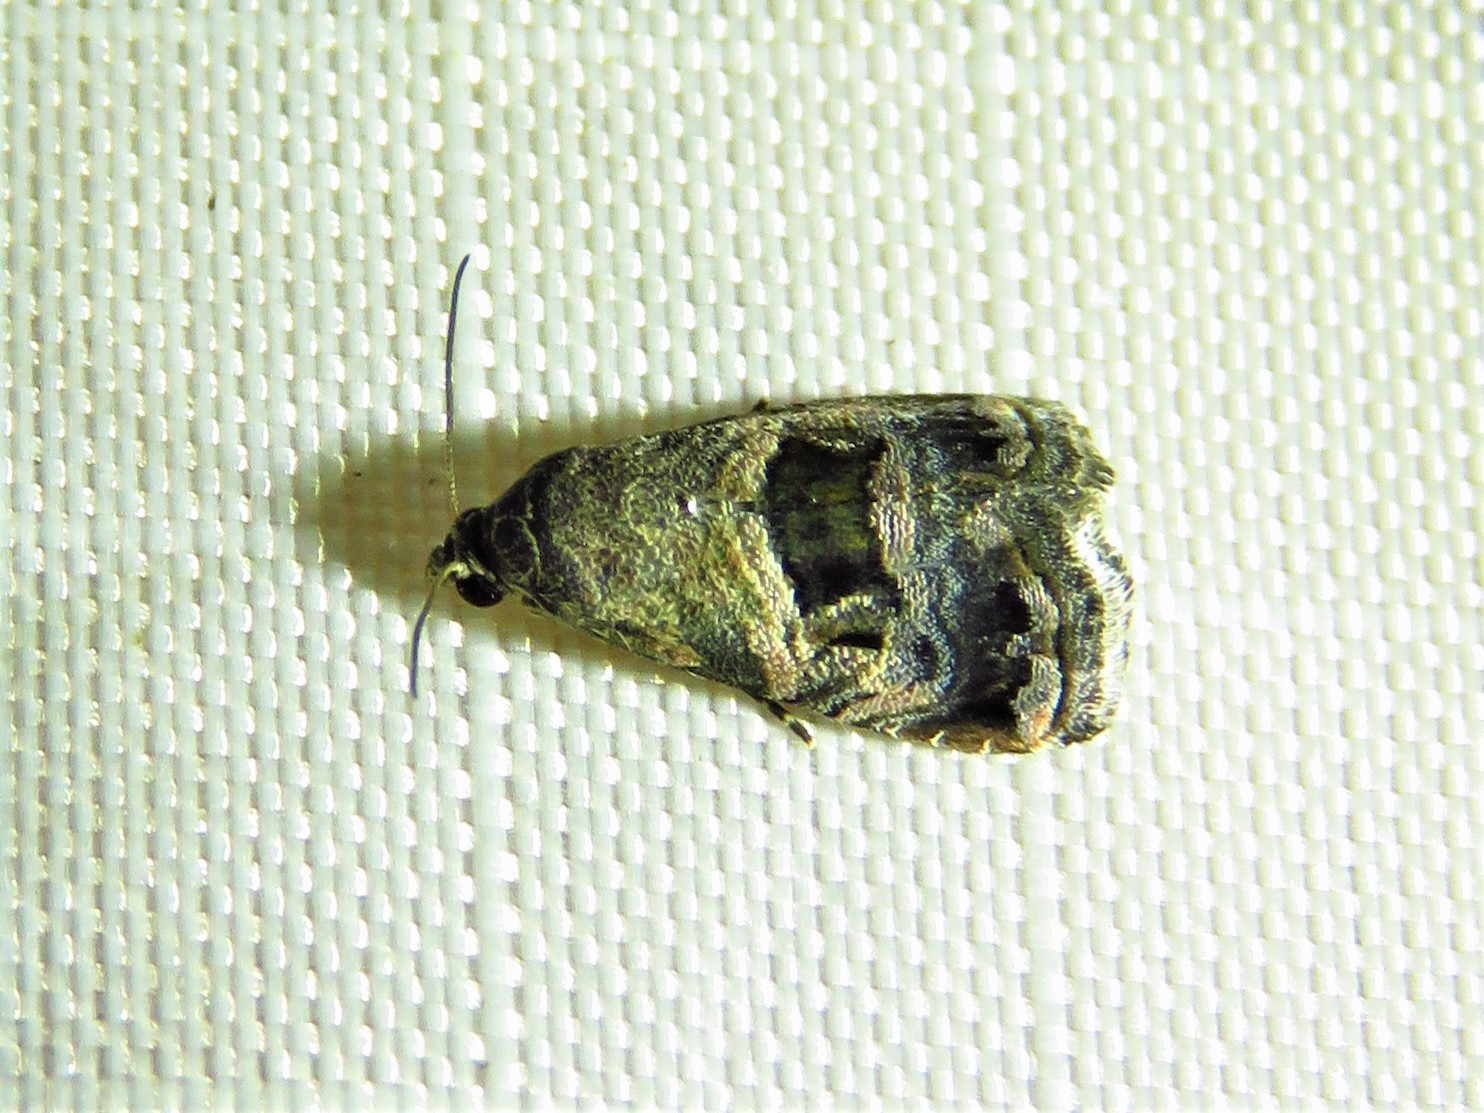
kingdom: Animalia
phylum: Arthropoda
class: Insecta
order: Lepidoptera
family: Noctuidae
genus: Tripudia
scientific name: Tripudia quadrifera
